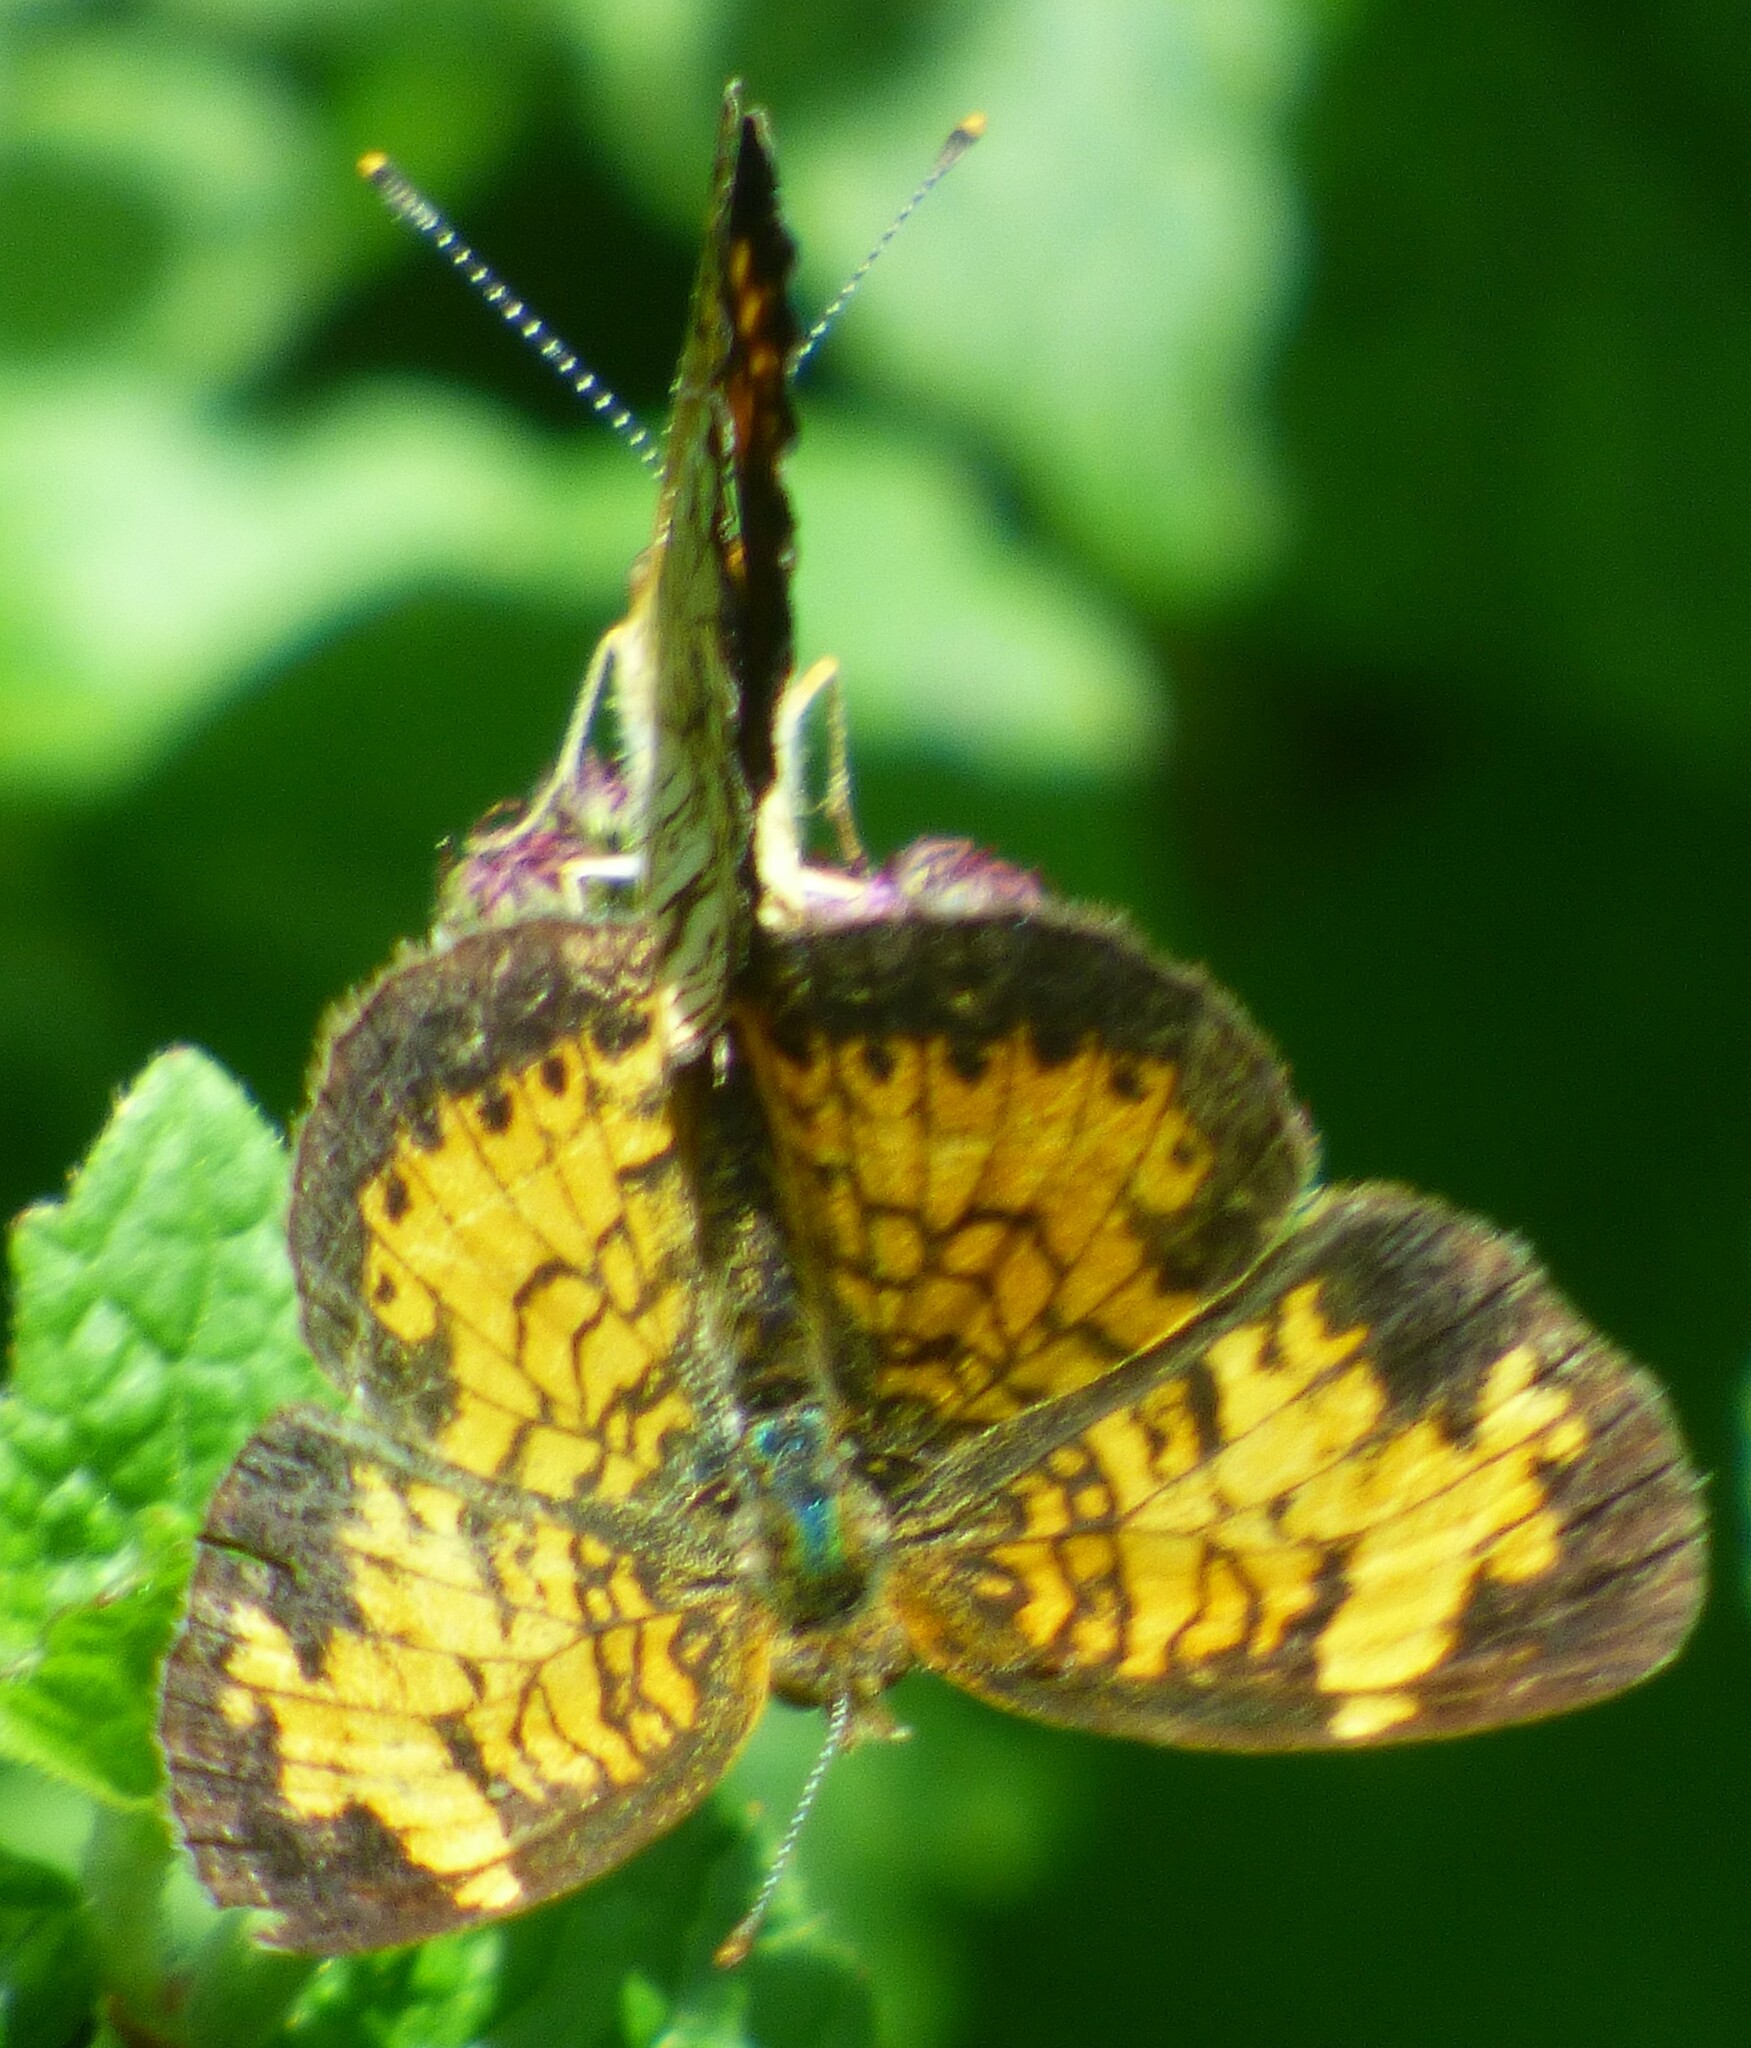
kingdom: Animalia
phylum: Arthropoda
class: Insecta
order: Lepidoptera
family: Nymphalidae
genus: Phyciodes
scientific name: Phyciodes tharos
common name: Pearl crescent
